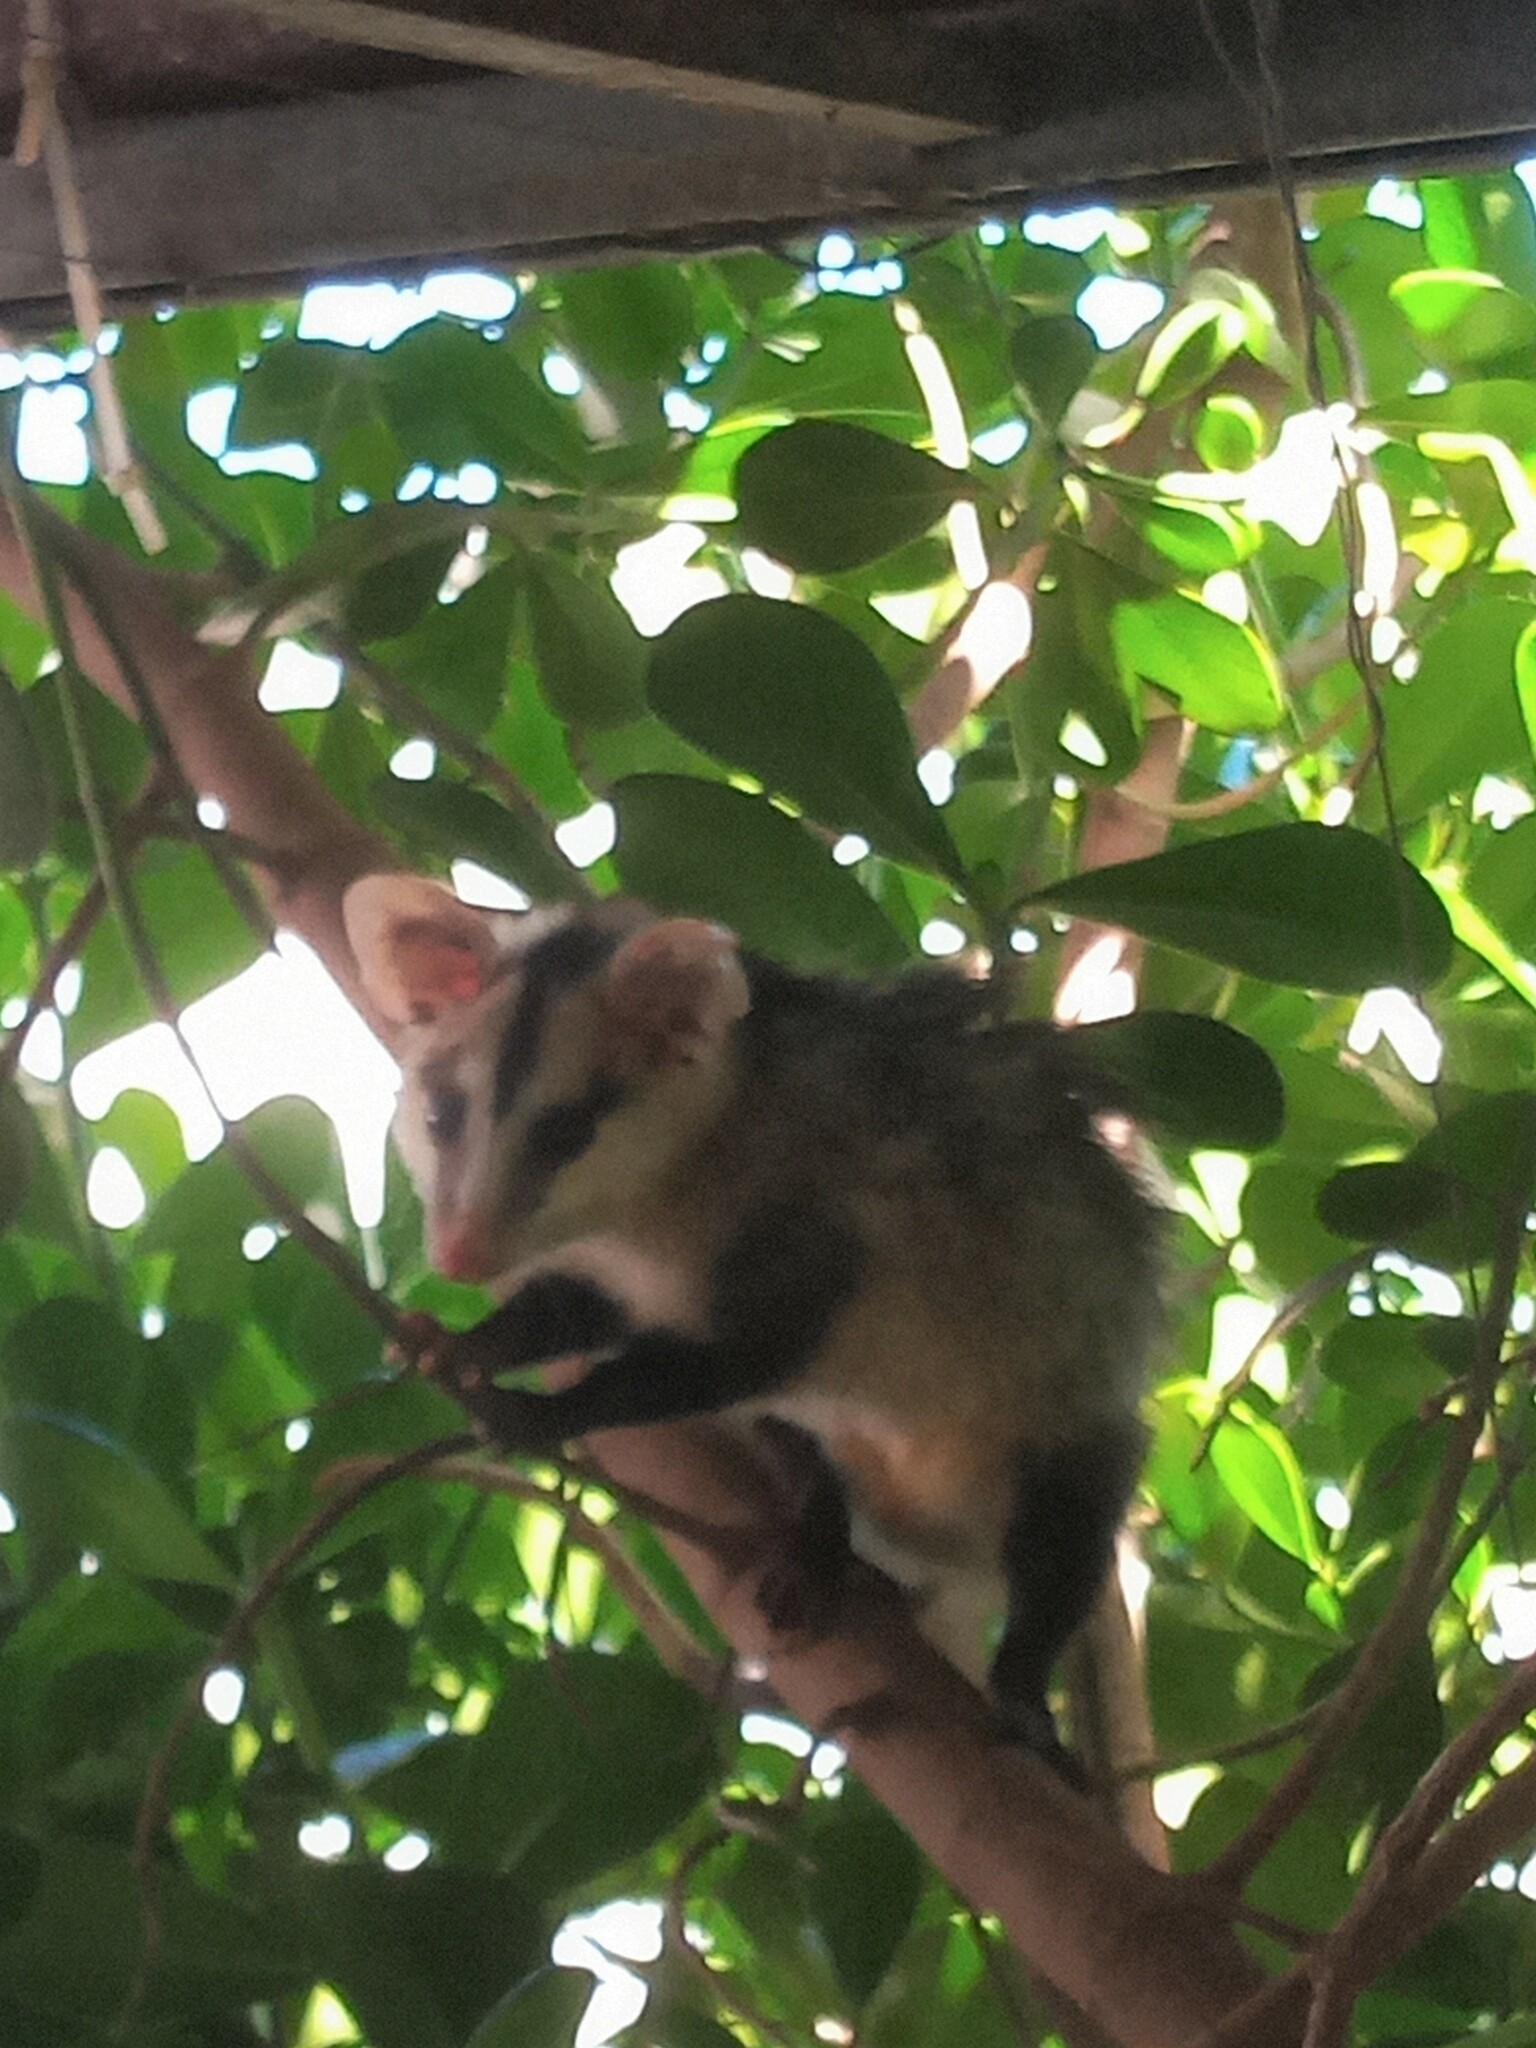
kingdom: Animalia
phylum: Chordata
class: Mammalia
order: Didelphimorphia
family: Didelphidae
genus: Didelphis
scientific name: Didelphis albiventris
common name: White-eared opossum
